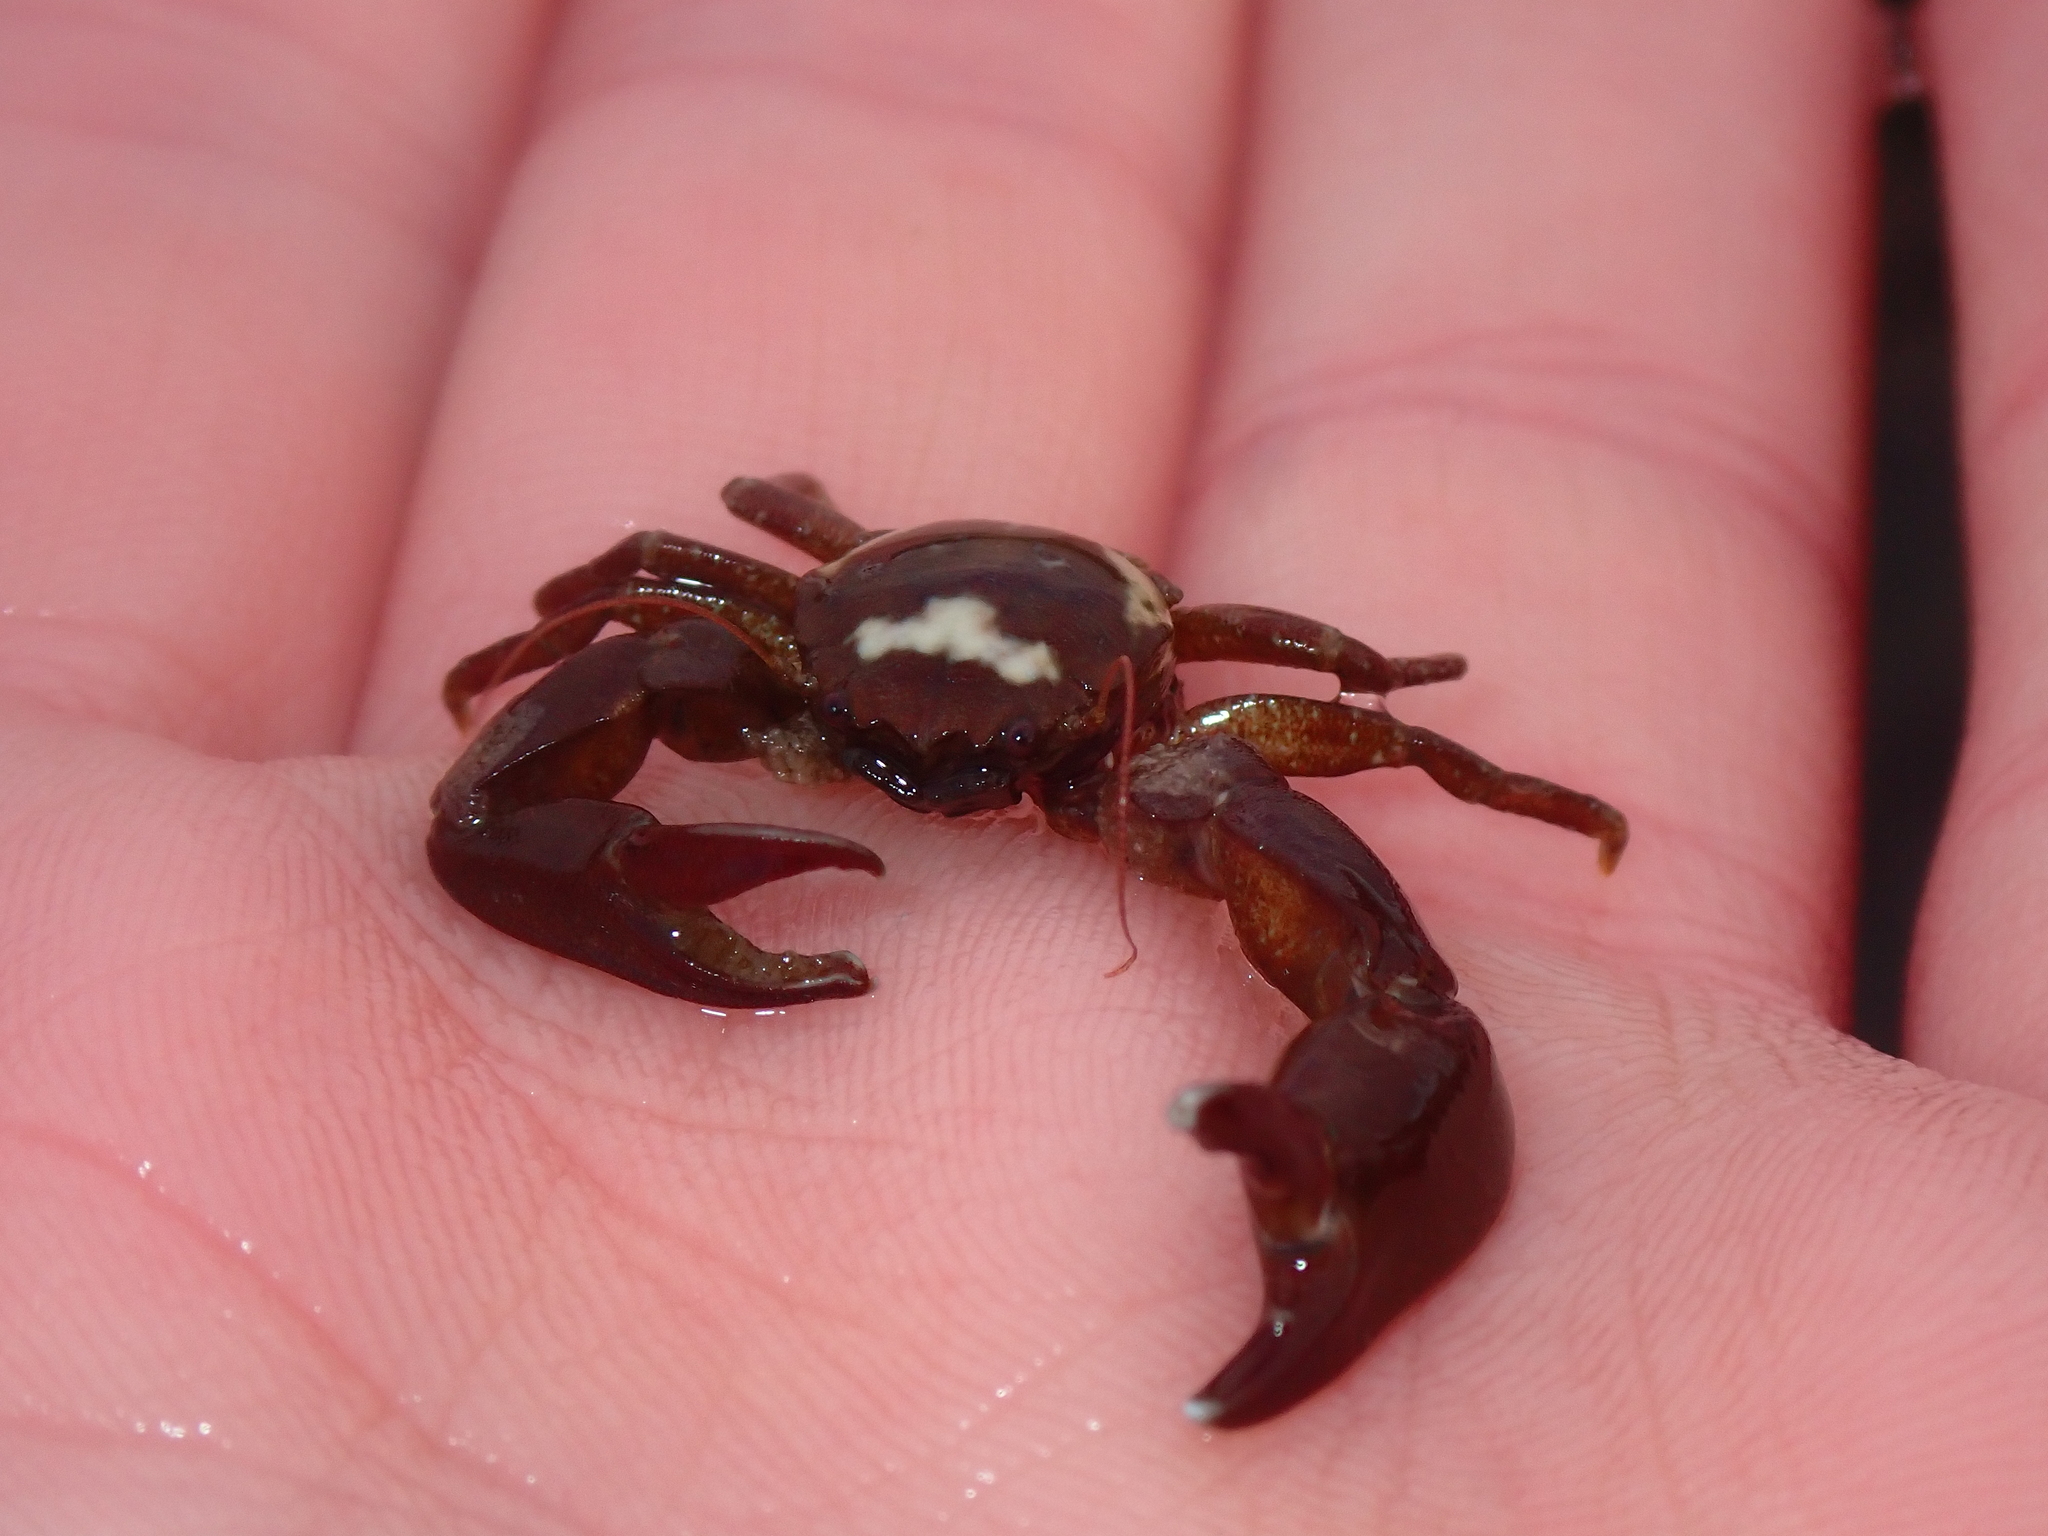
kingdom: Animalia
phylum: Arthropoda
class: Malacostraca
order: Decapoda
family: Porcellanidae
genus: Pisidia
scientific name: Pisidia longicornis
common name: Long clawed porcelain crab
